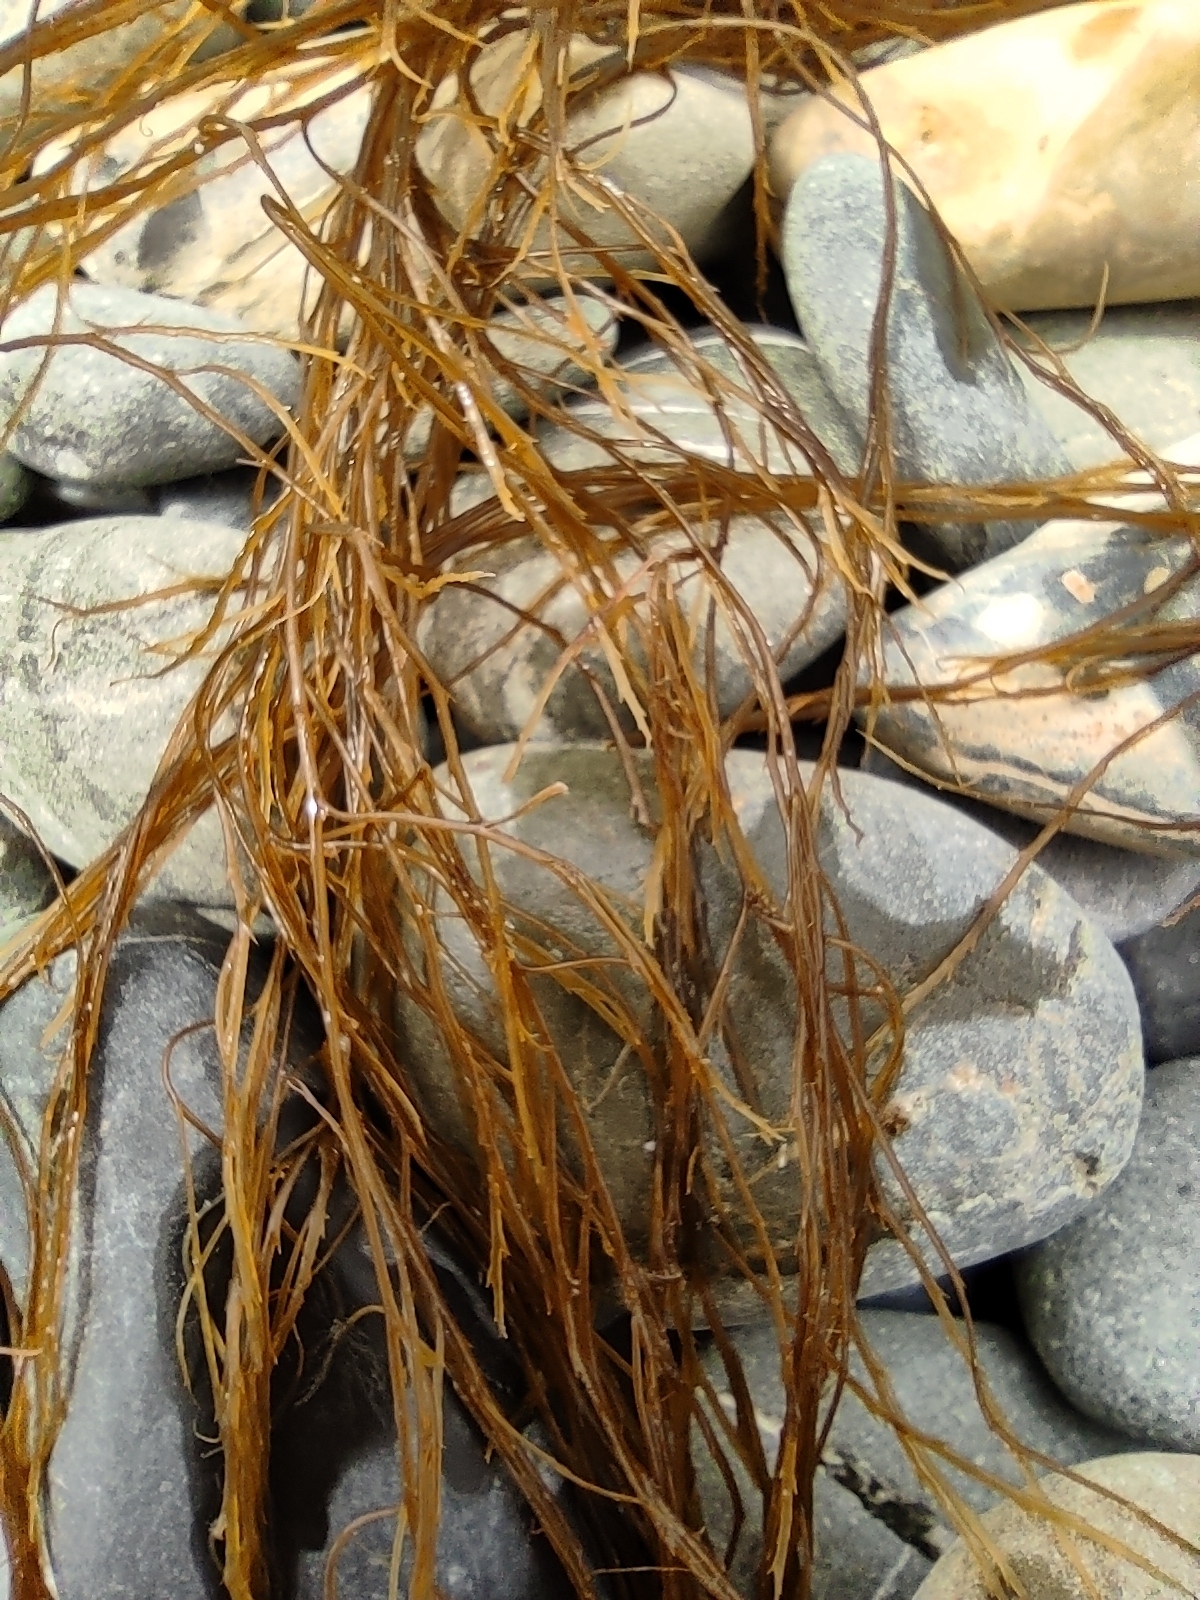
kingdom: Chromista
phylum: Ochrophyta
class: Phaeophyceae
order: Desmarestiales
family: Desmarestiaceae
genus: Desmarestia
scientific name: Desmarestia aculeata
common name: Witch's hair
